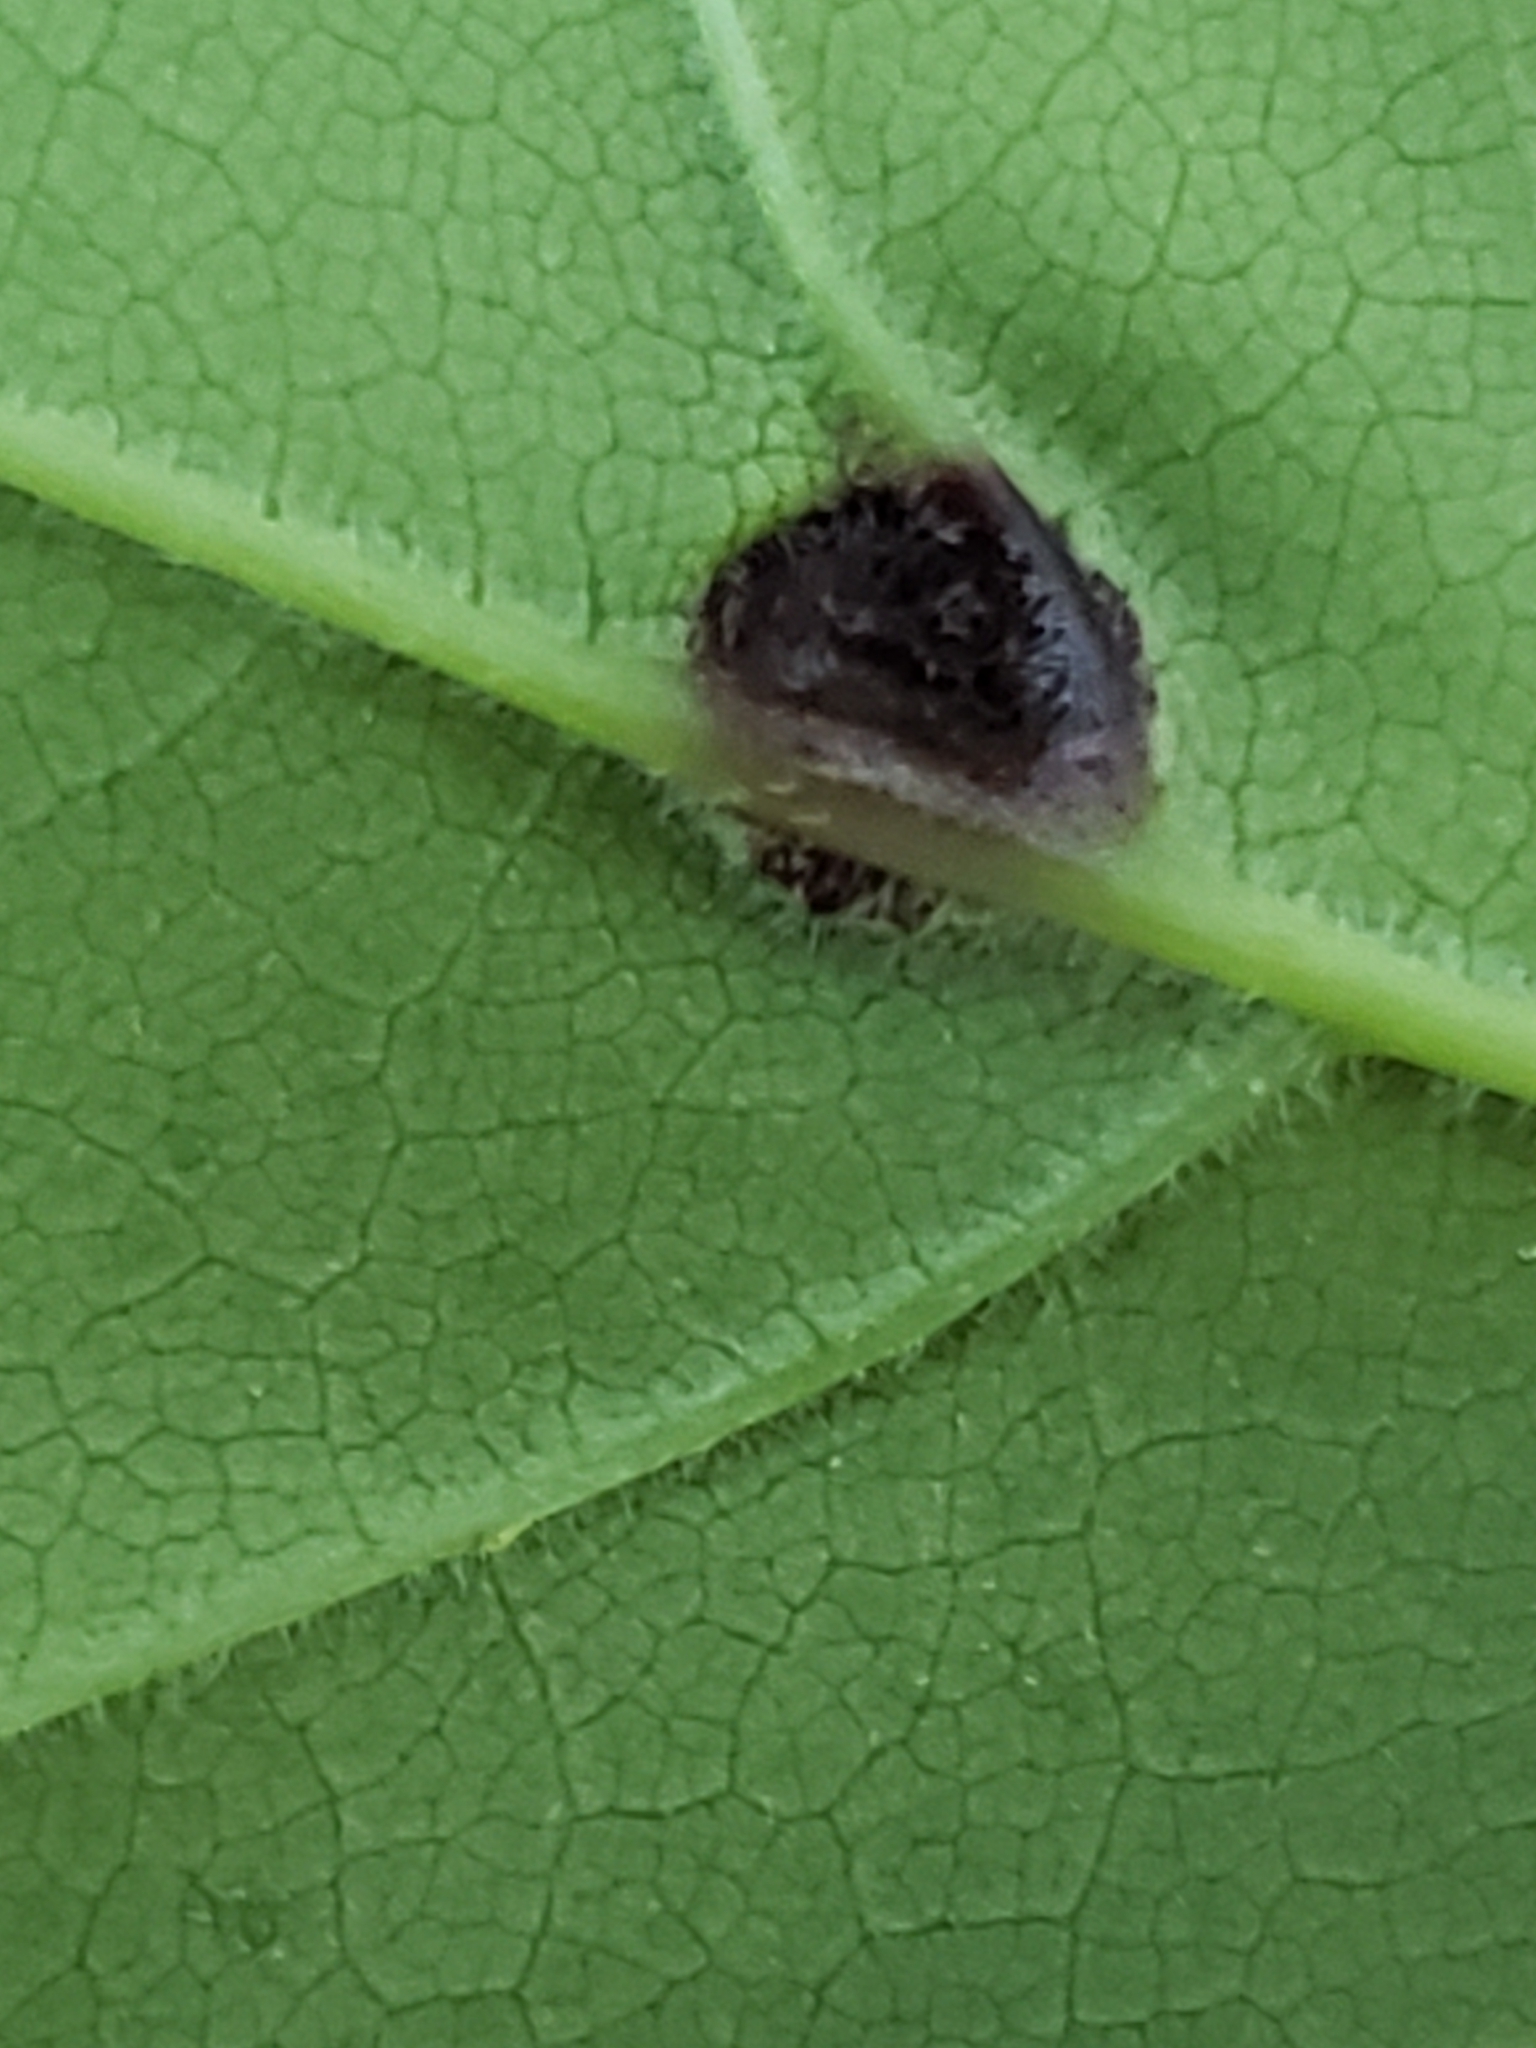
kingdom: Animalia
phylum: Arthropoda
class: Insecta
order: Diptera
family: Cecidomyiidae
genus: Dasineura
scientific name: Dasineura pellex
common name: Ash bullet gall midge
